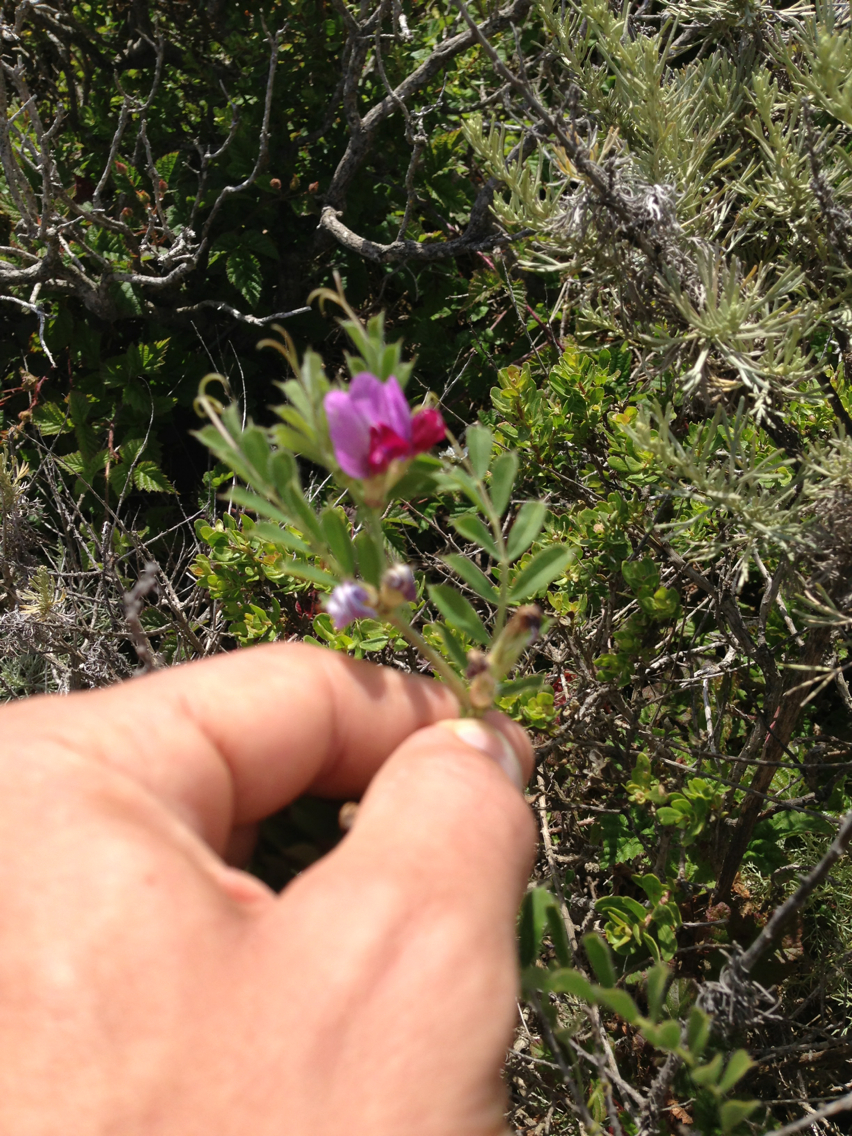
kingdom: Plantae
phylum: Tracheophyta
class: Magnoliopsida
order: Fabales
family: Fabaceae
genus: Vicia
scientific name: Vicia sativa
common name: Garden vetch
